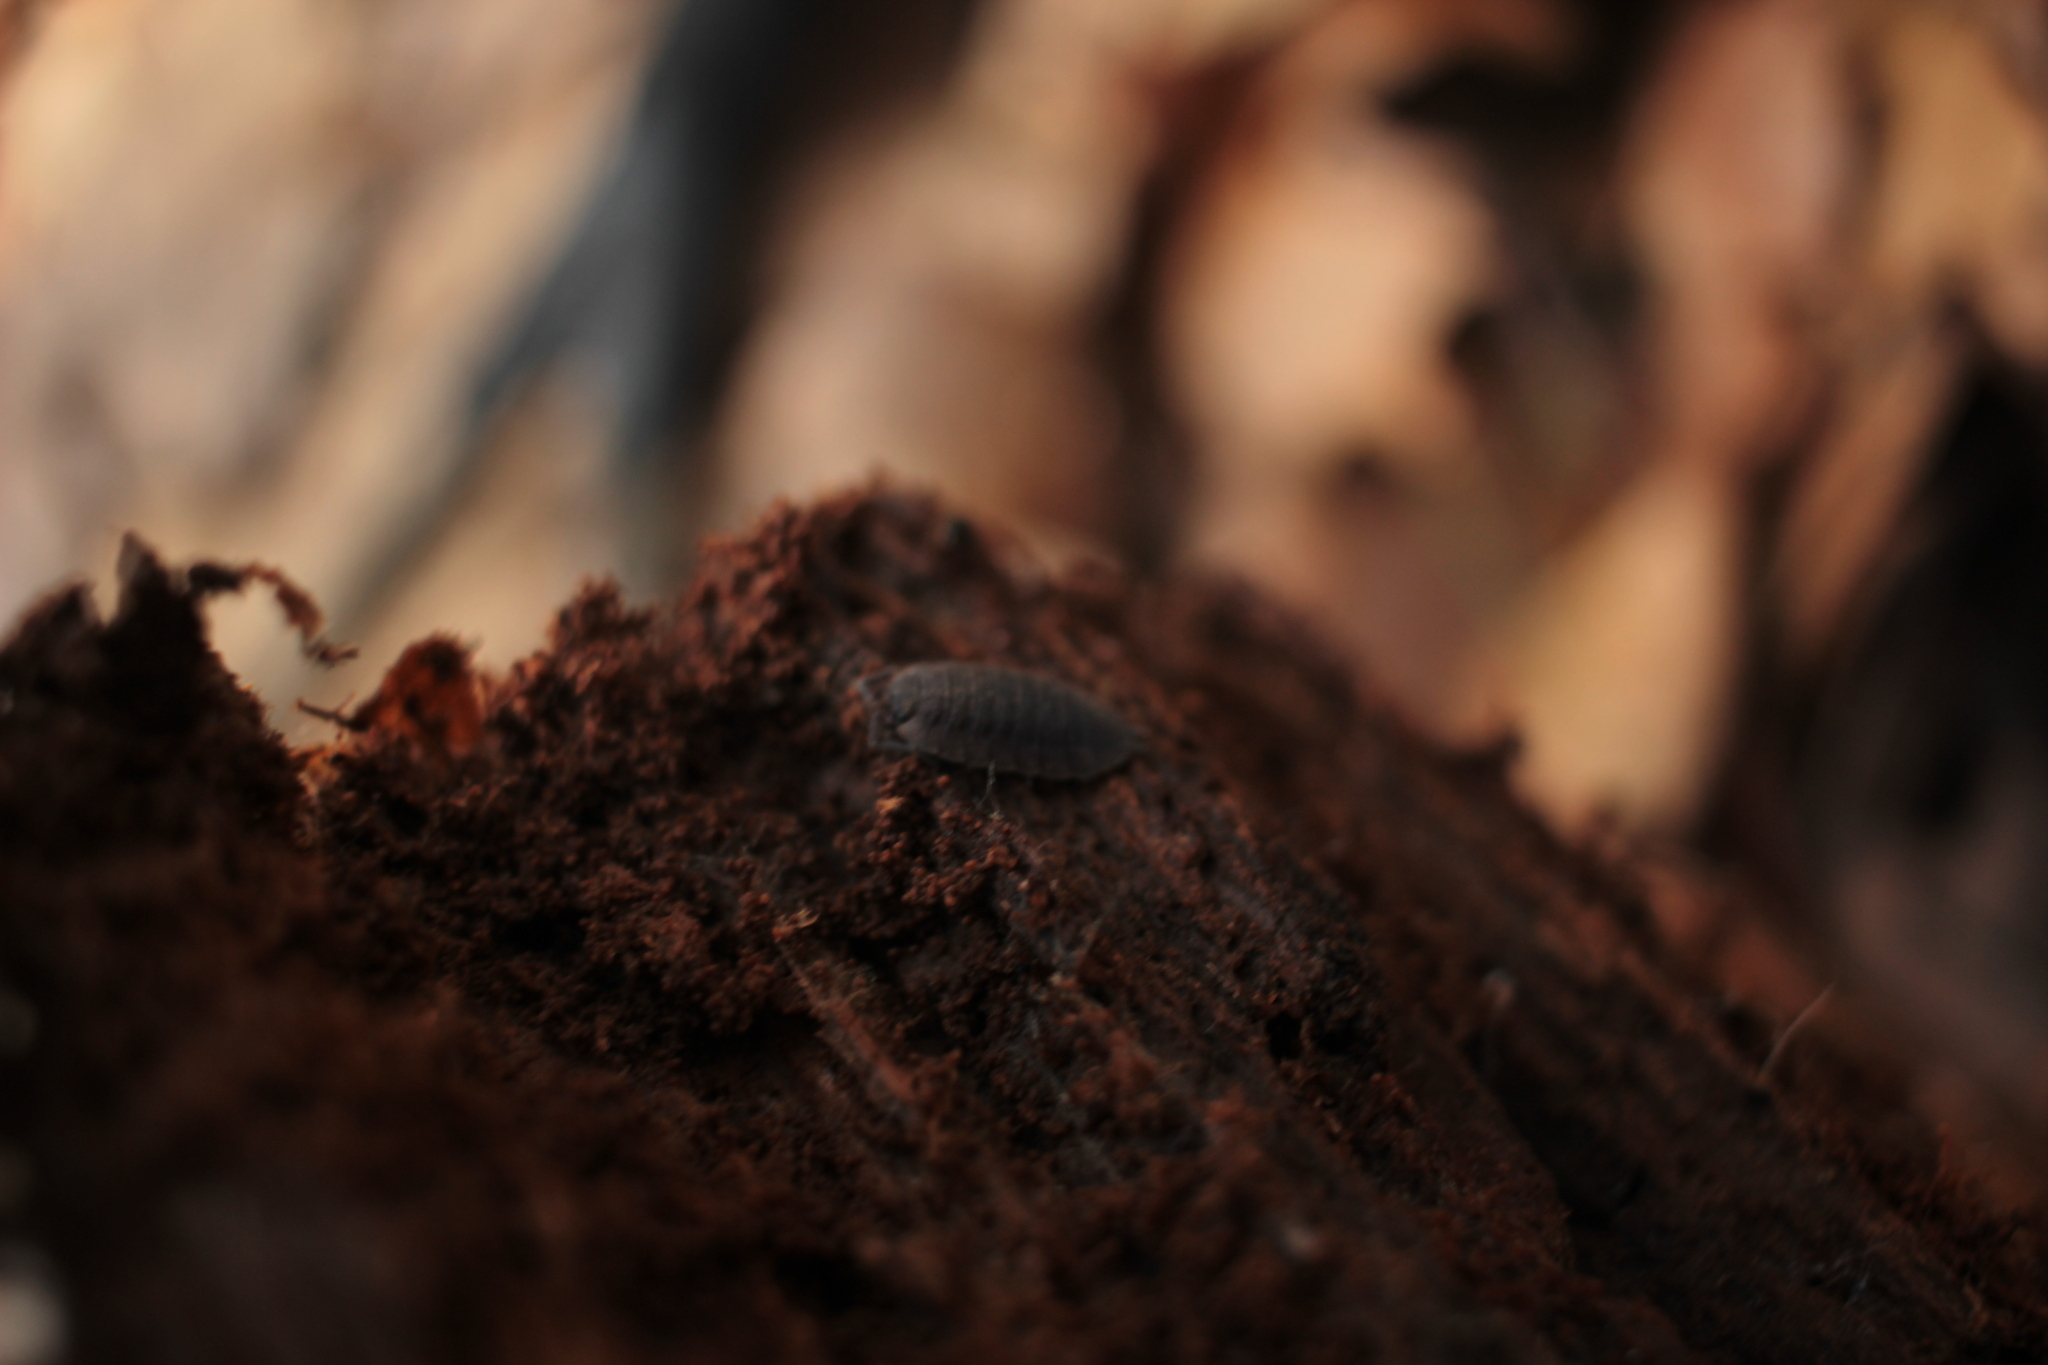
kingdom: Animalia
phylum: Arthropoda
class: Malacostraca
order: Isopoda
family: Porcellionidae
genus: Porcellio
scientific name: Porcellio scaber
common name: Common rough woodlouse
